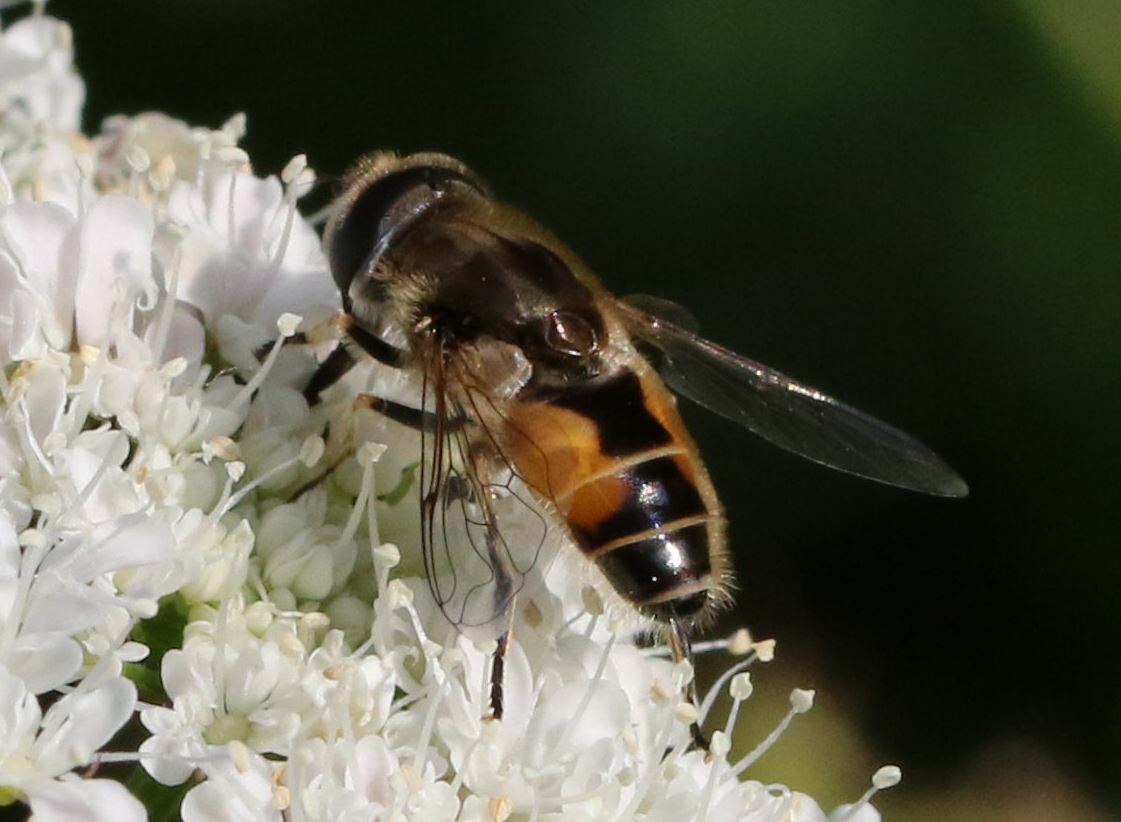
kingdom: Animalia
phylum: Arthropoda
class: Insecta
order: Diptera
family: Syrphidae
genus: Eristalis
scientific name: Eristalis arbustorum
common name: Hover fly
